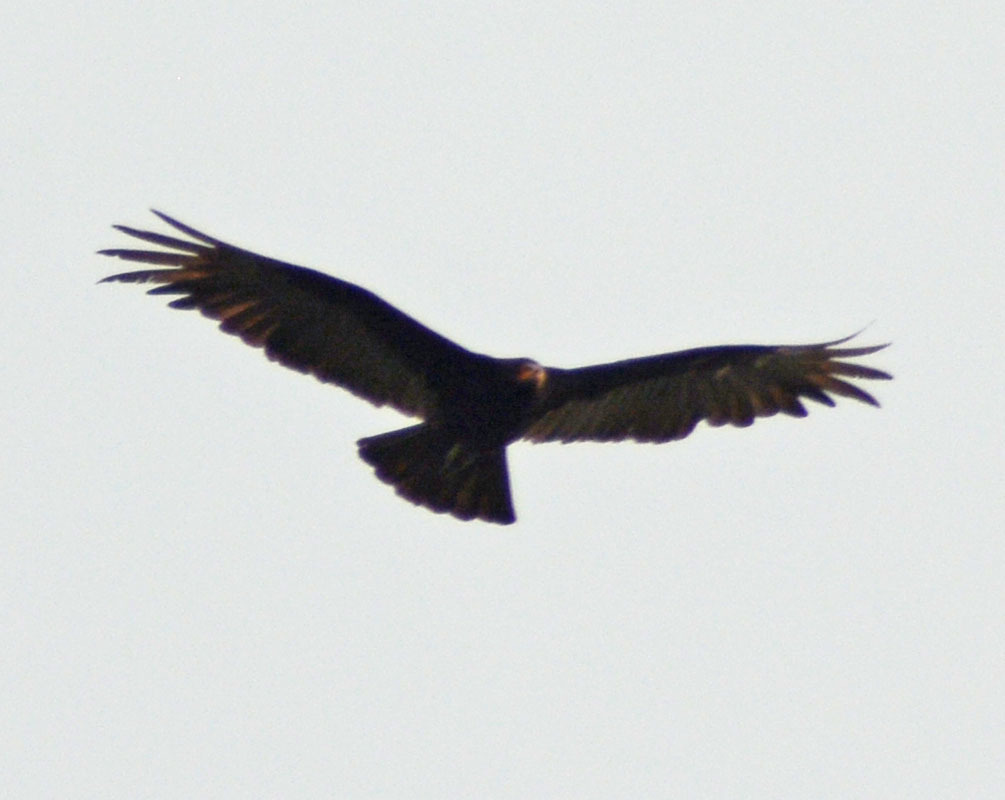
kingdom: Animalia
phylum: Chordata
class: Aves
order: Accipitriformes
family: Cathartidae
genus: Cathartes
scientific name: Cathartes burrovianus
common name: Lesser yellow-headed vulture
